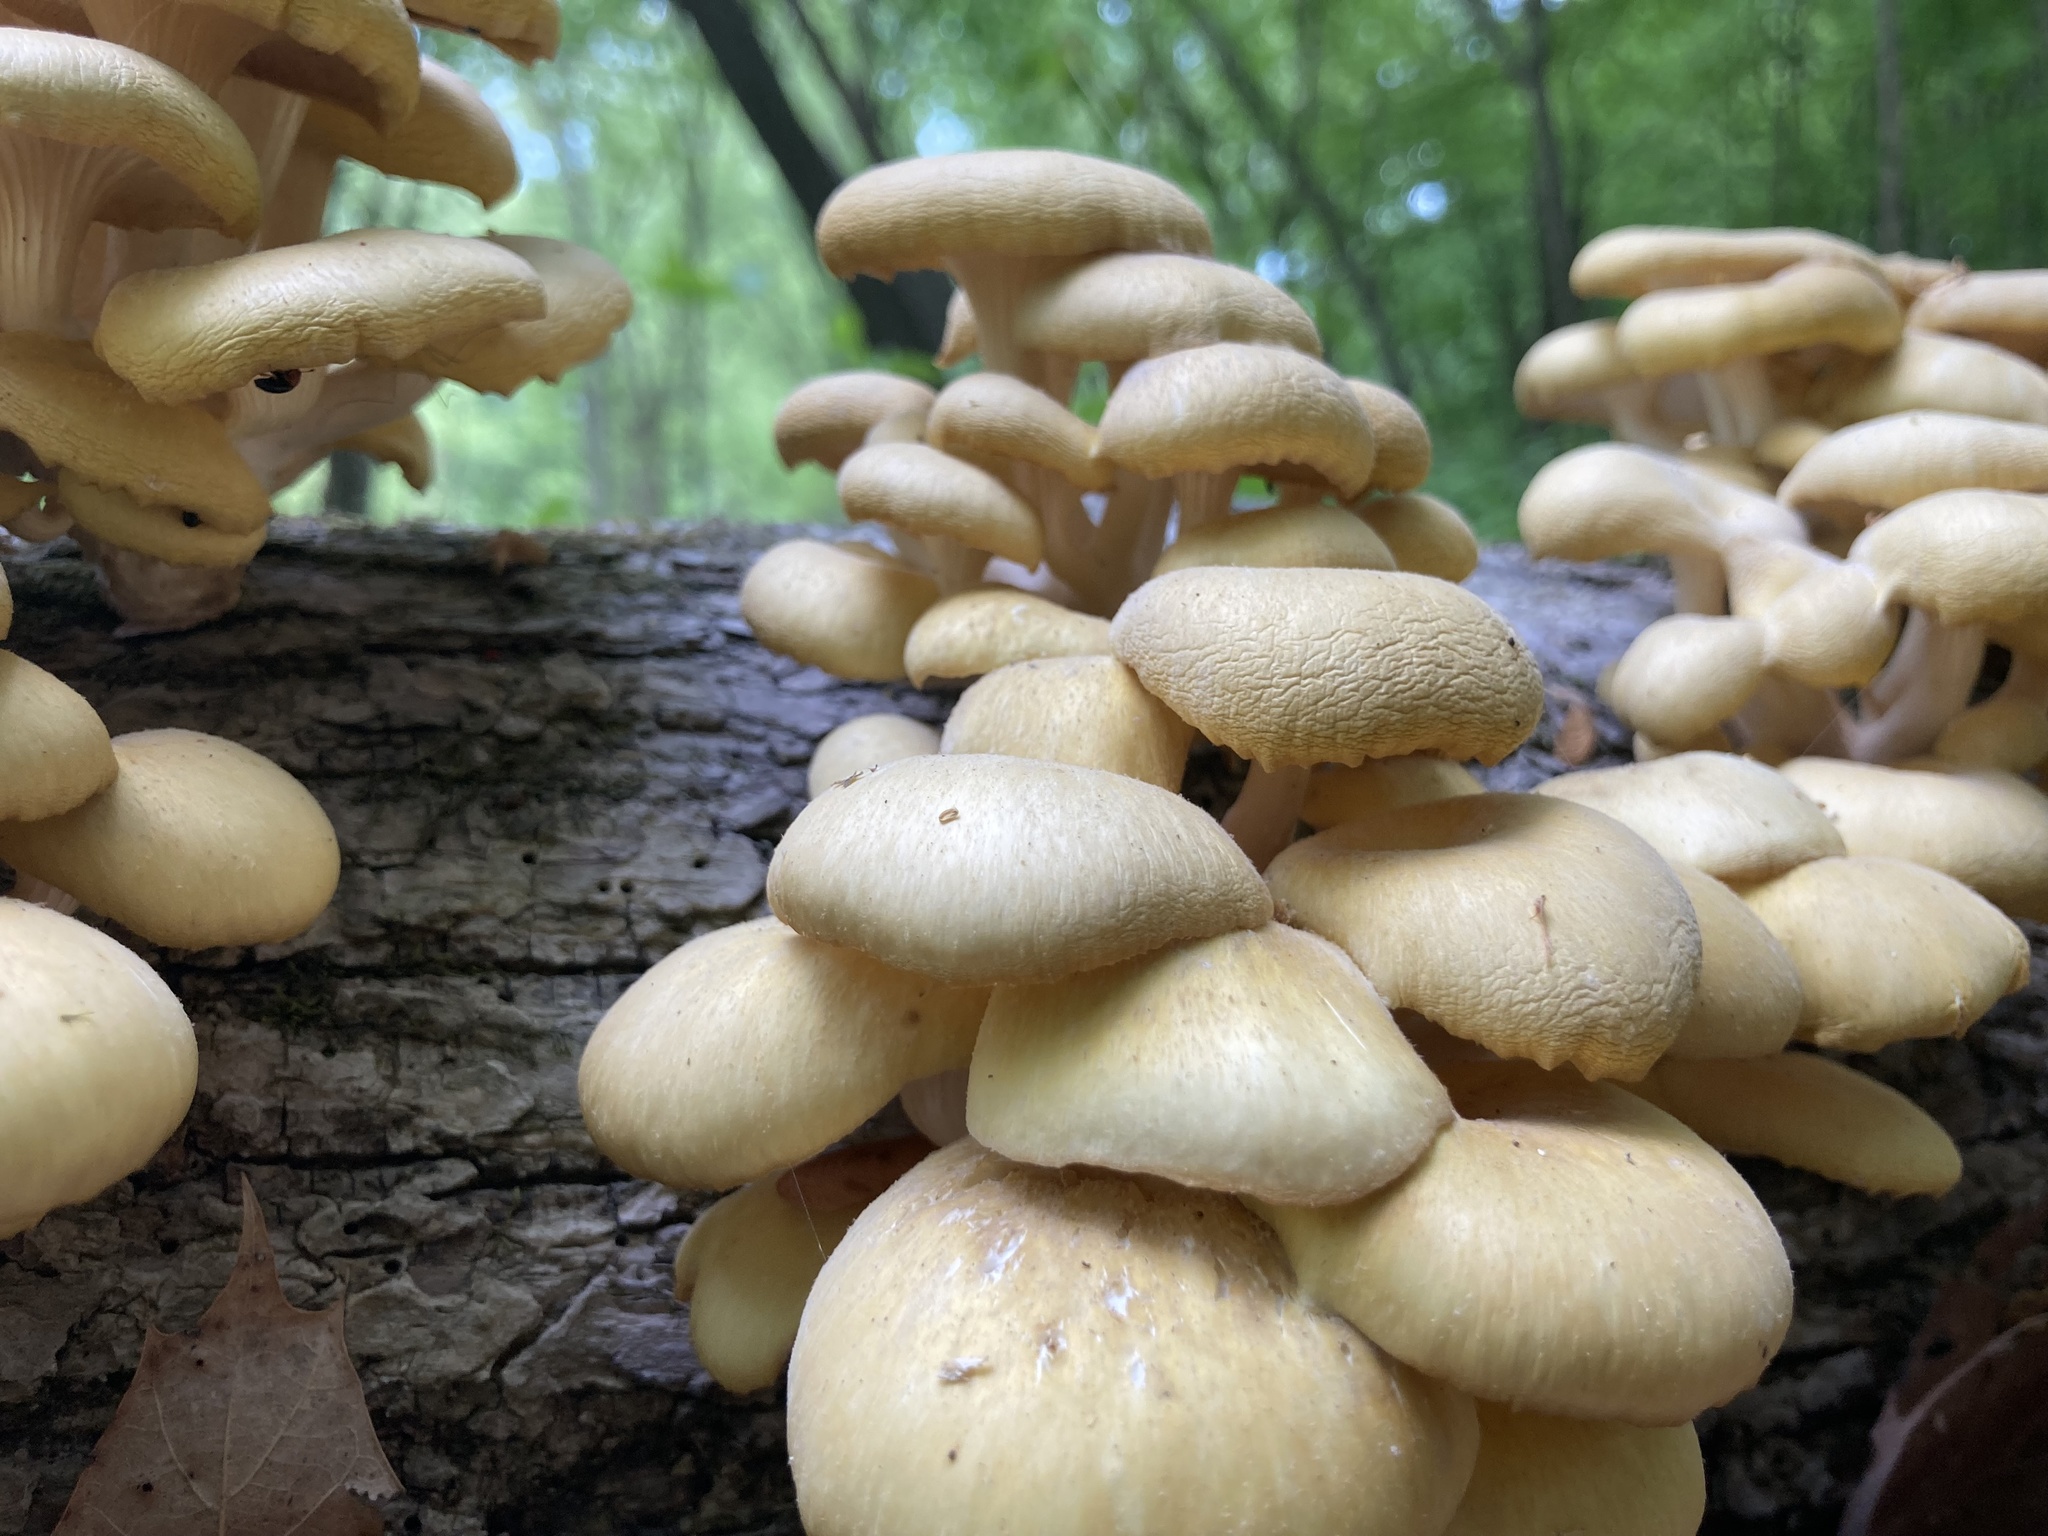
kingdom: Fungi
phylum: Basidiomycota
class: Agaricomycetes
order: Agaricales
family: Pleurotaceae
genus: Pleurotus
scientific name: Pleurotus citrinopileatus
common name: Golden oyster mushroom
